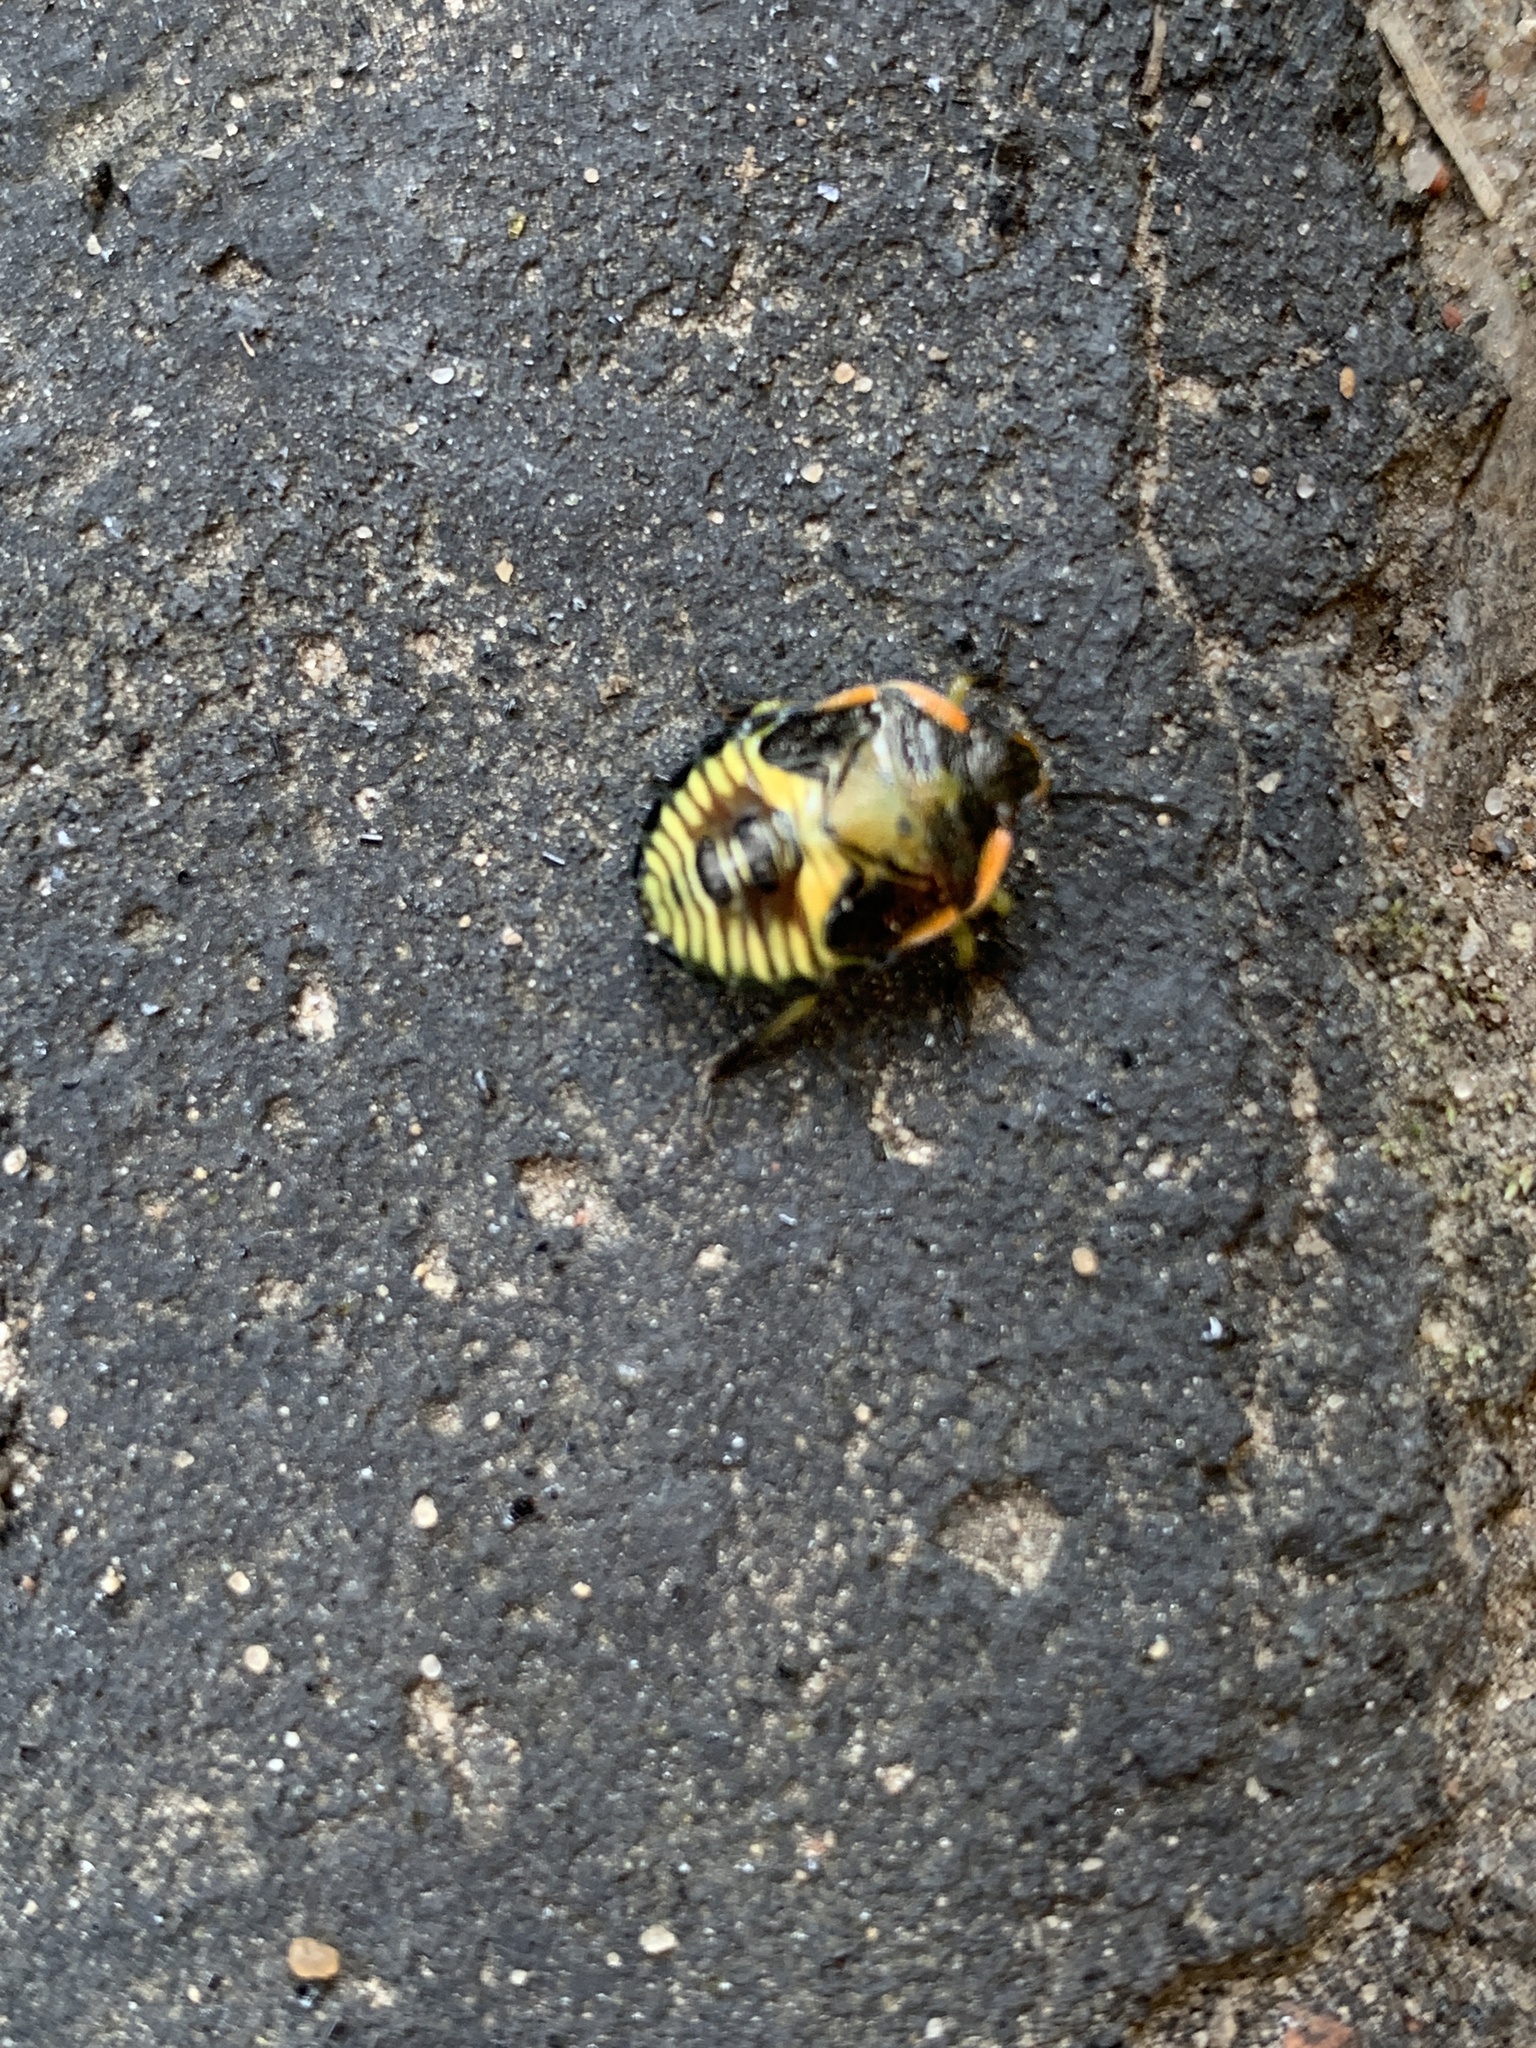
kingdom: Animalia
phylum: Arthropoda
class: Insecta
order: Hemiptera
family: Pentatomidae
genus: Chinavia
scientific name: Chinavia hilaris
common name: Green stink bug
